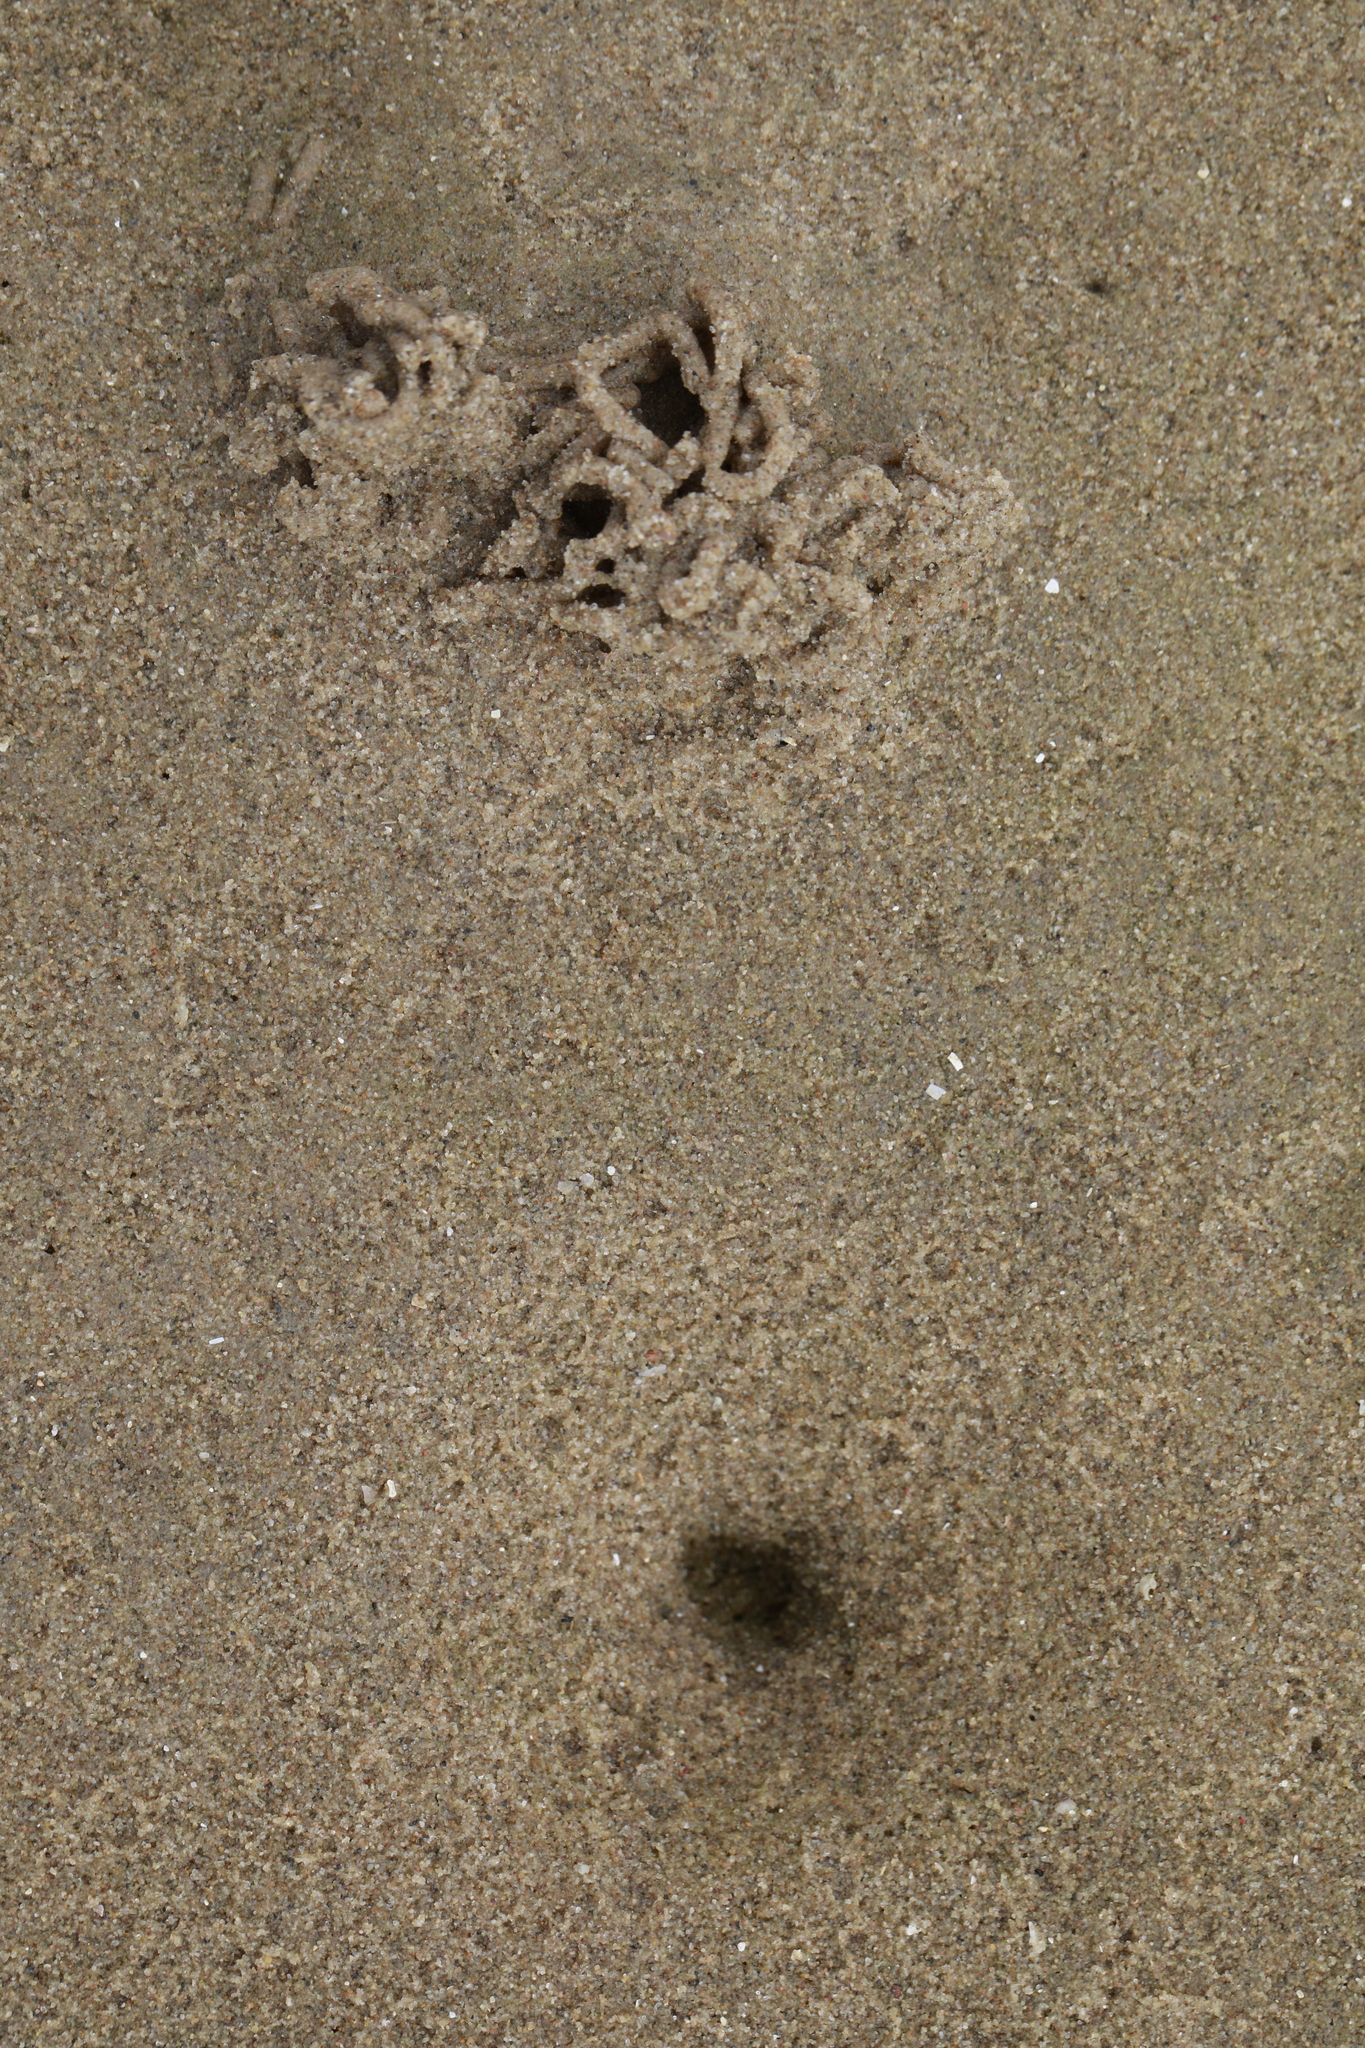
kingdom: Animalia
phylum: Annelida
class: Polychaeta
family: Arenicolidae
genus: Arenicola
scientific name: Arenicola marina
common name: Blow lugworm
